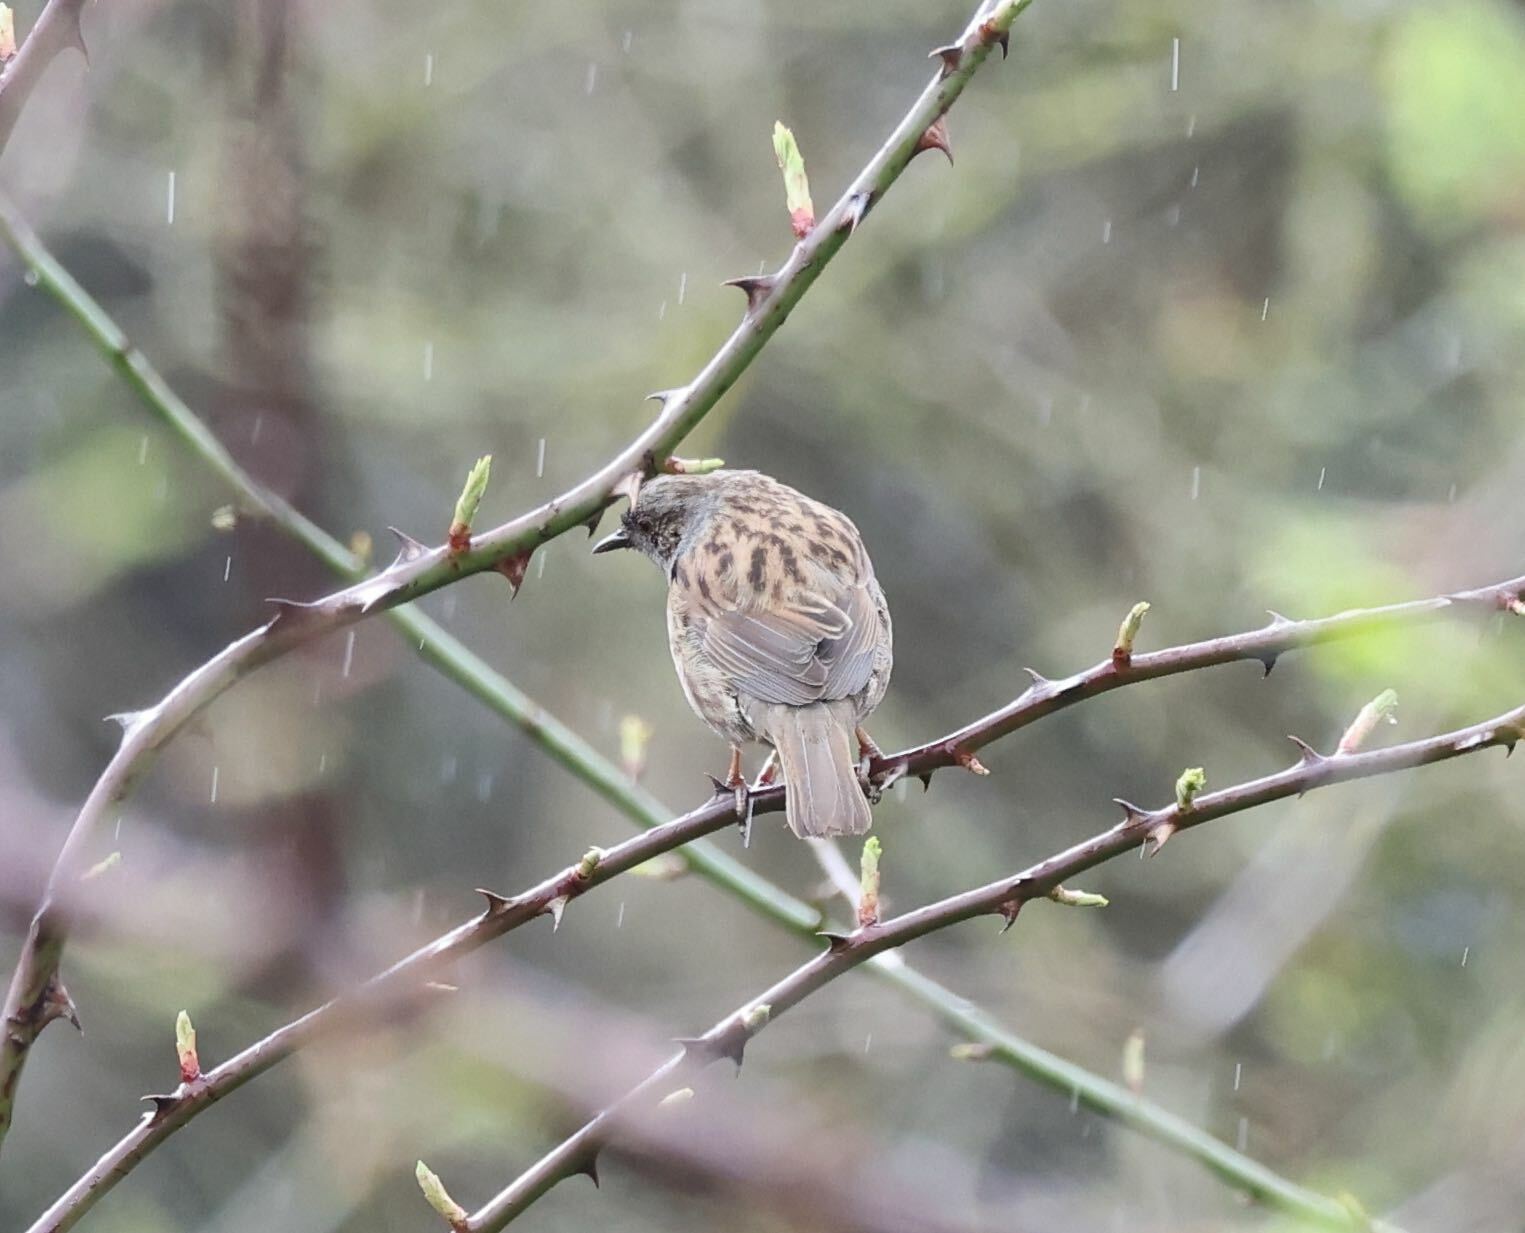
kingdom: Animalia
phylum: Chordata
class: Aves
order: Passeriformes
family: Prunellidae
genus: Prunella
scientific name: Prunella modularis
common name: Dunnock
